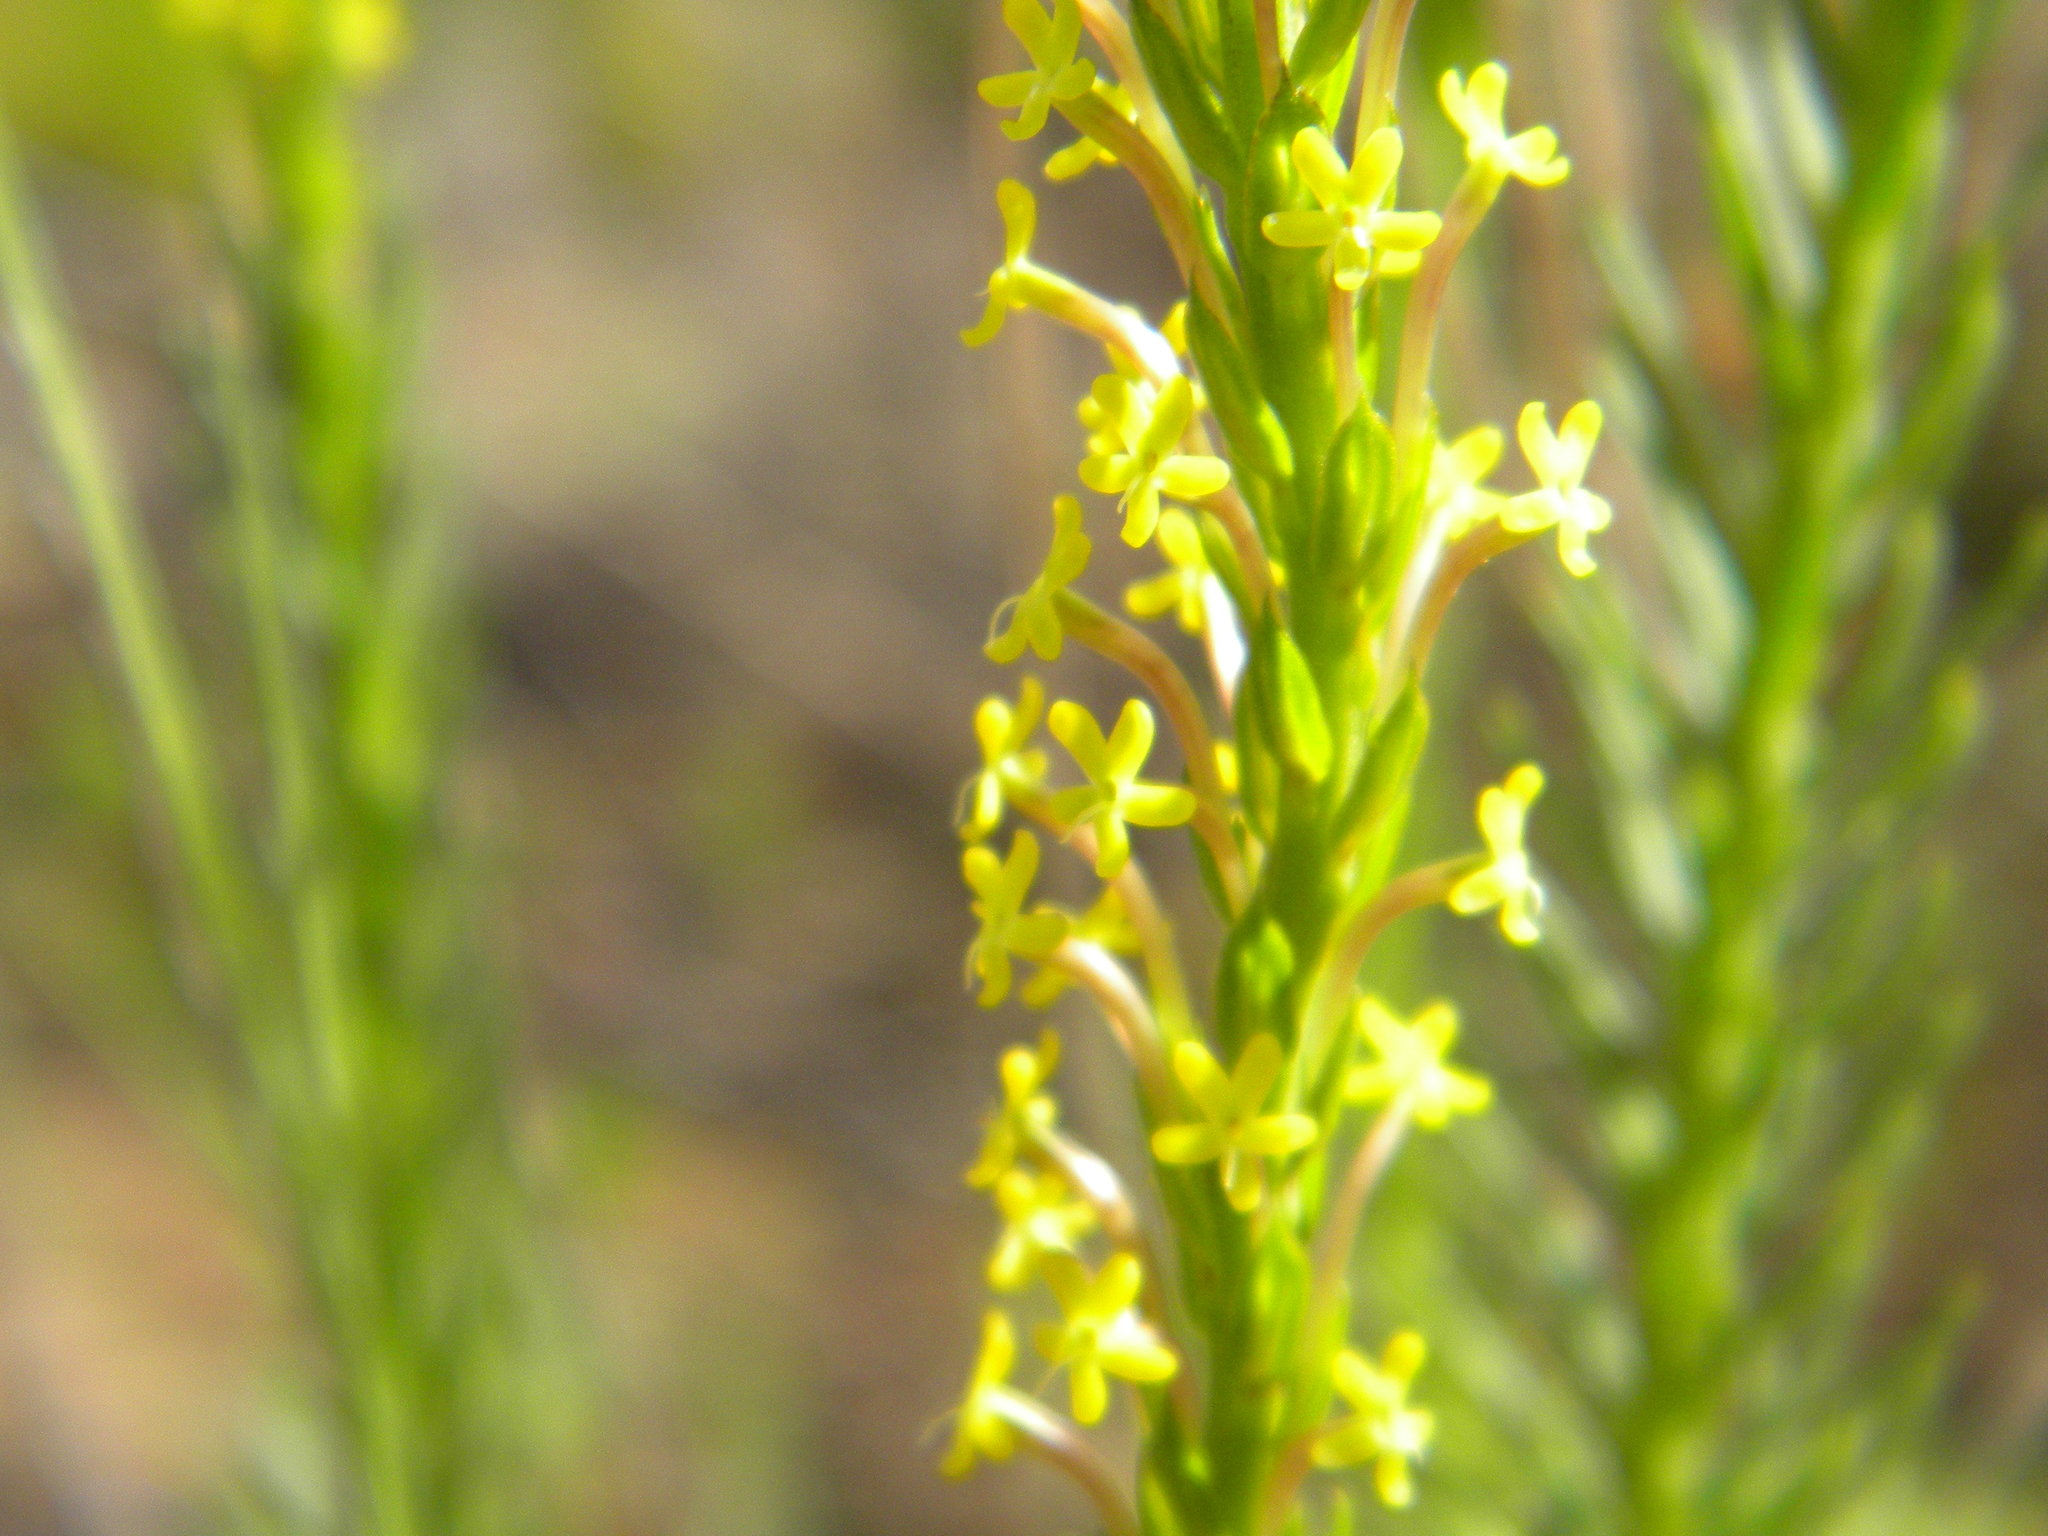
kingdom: Plantae
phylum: Tracheophyta
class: Magnoliopsida
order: Lamiales
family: Scrophulariaceae
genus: Microdon
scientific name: Microdon dubius
